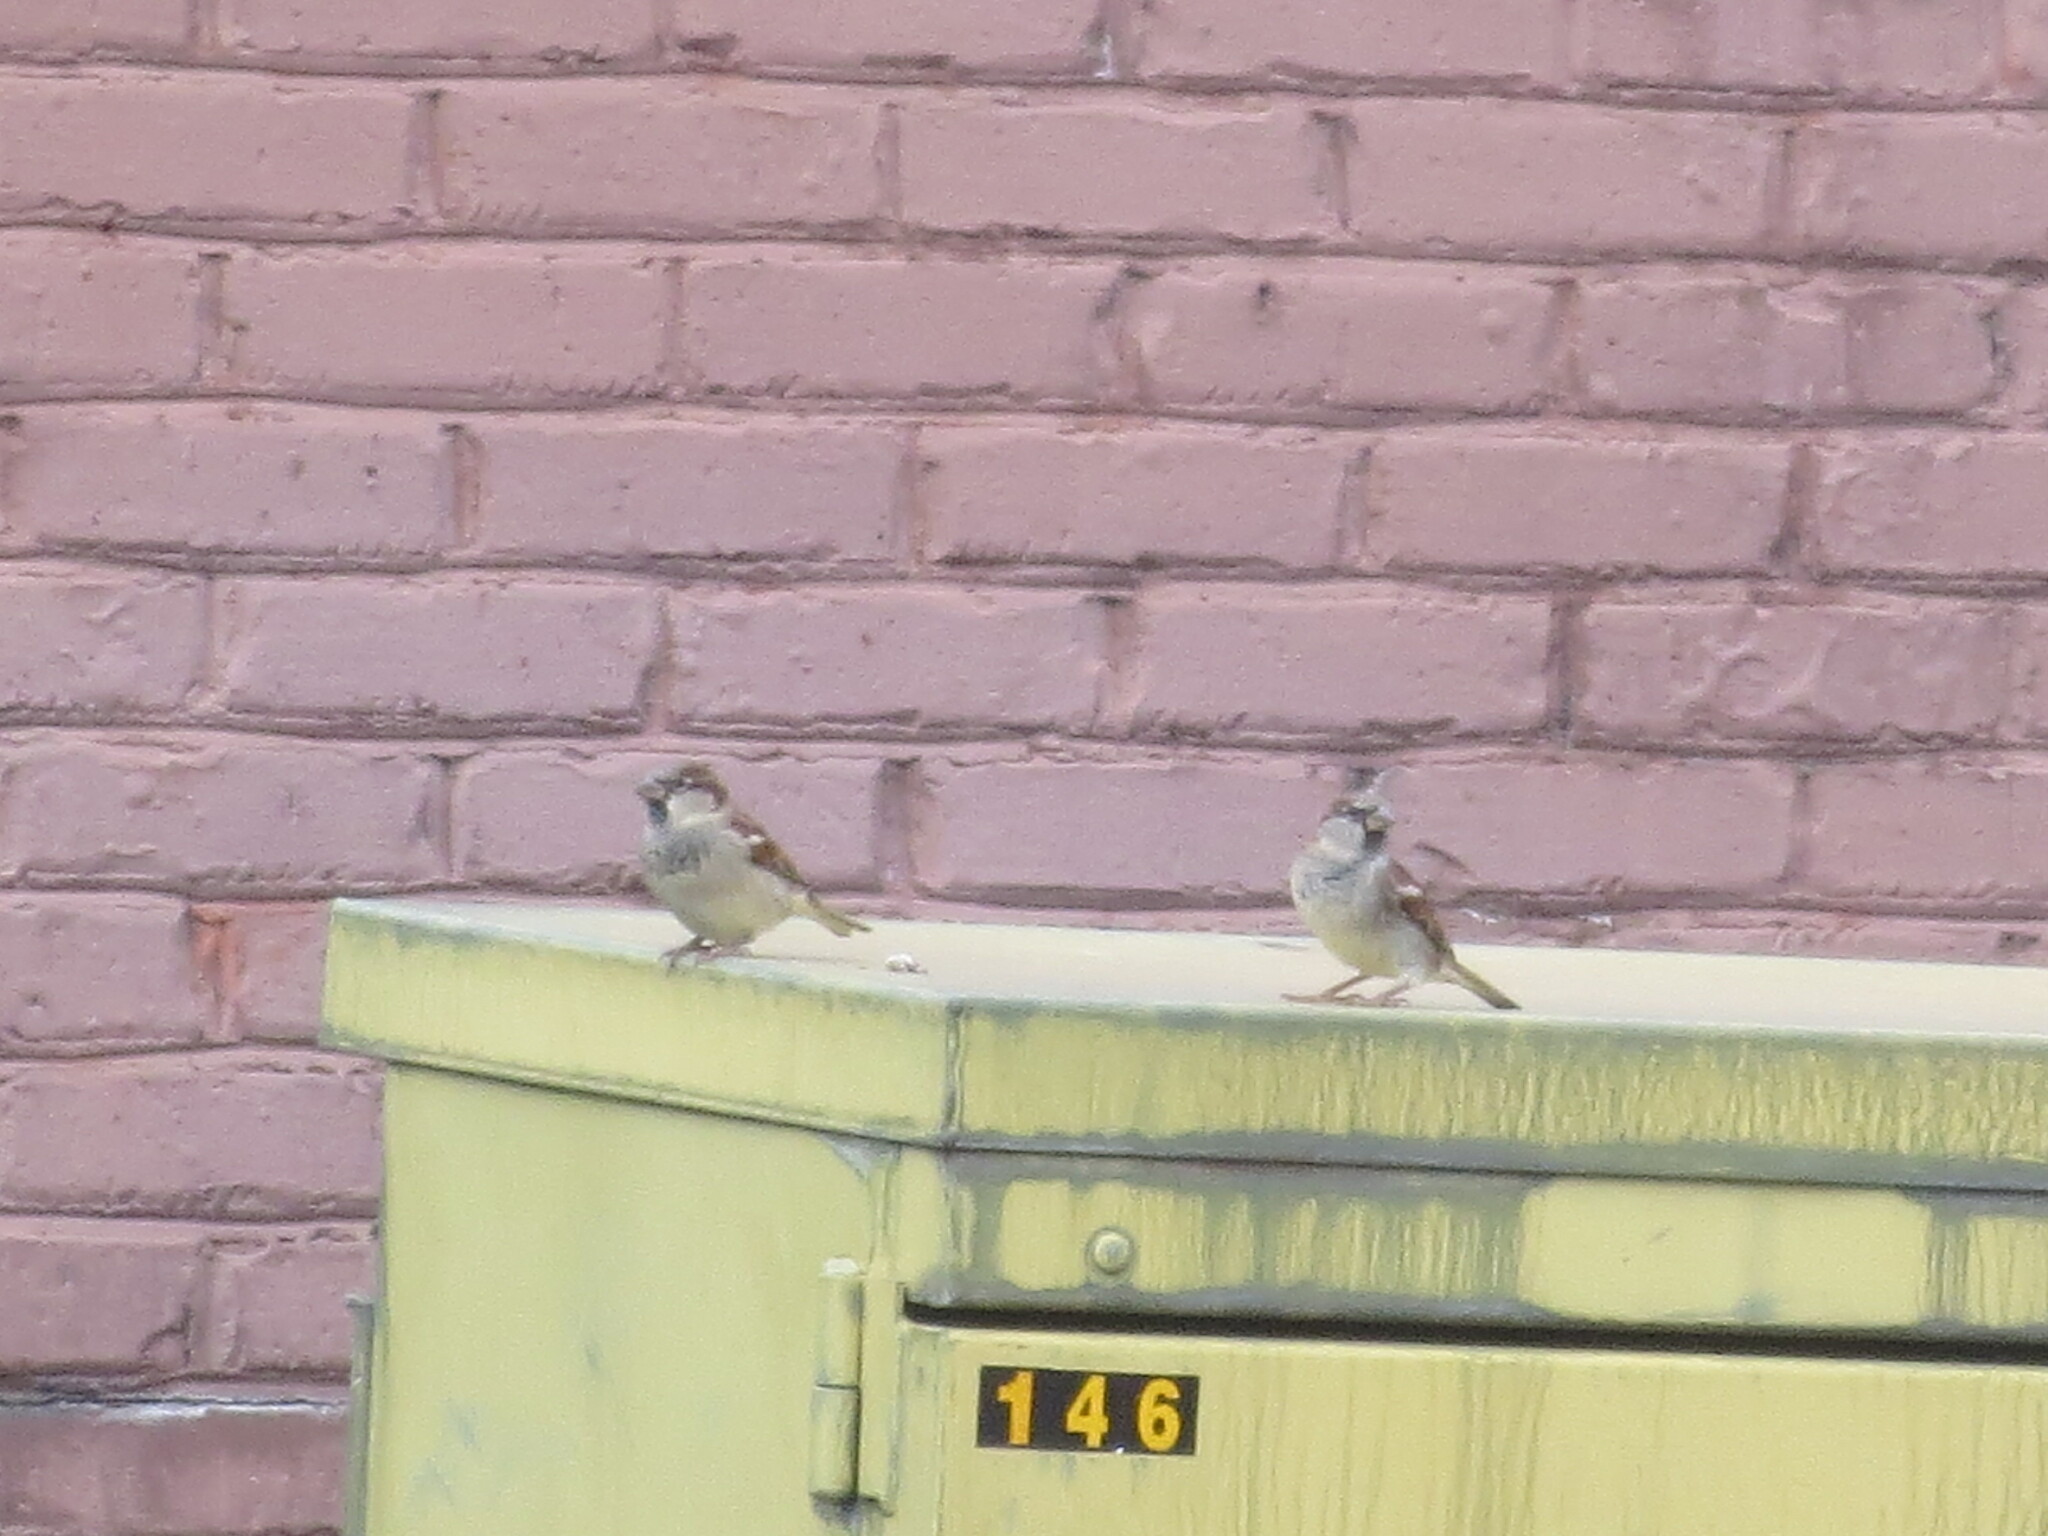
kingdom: Animalia
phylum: Chordata
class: Aves
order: Passeriformes
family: Passeridae
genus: Passer
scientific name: Passer domesticus
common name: House sparrow
